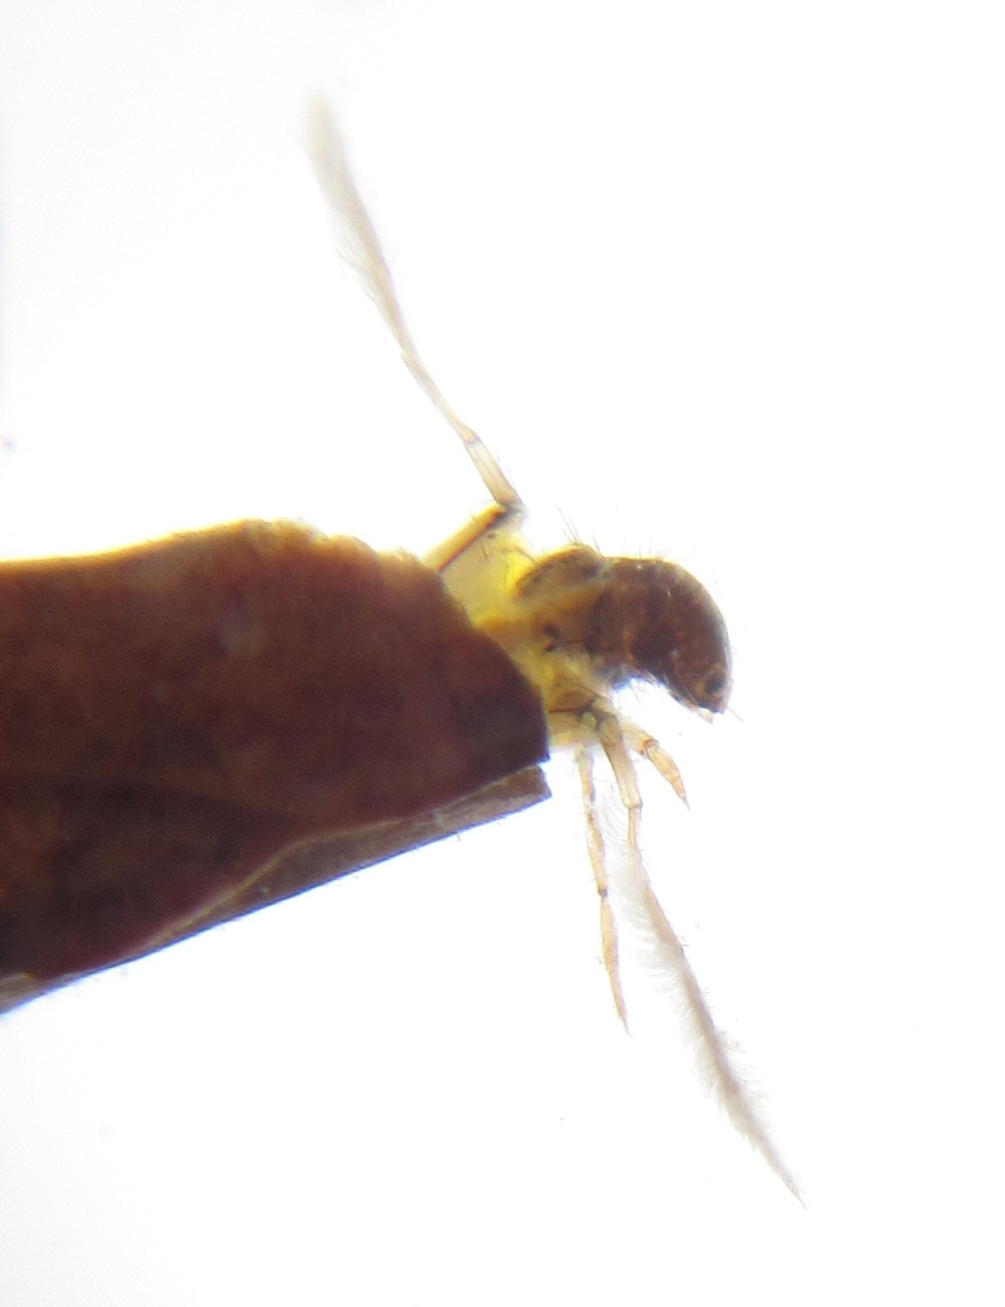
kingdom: Animalia
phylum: Arthropoda
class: Insecta
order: Trichoptera
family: Leptoceridae
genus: Athripsodes
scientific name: Athripsodes prionii
